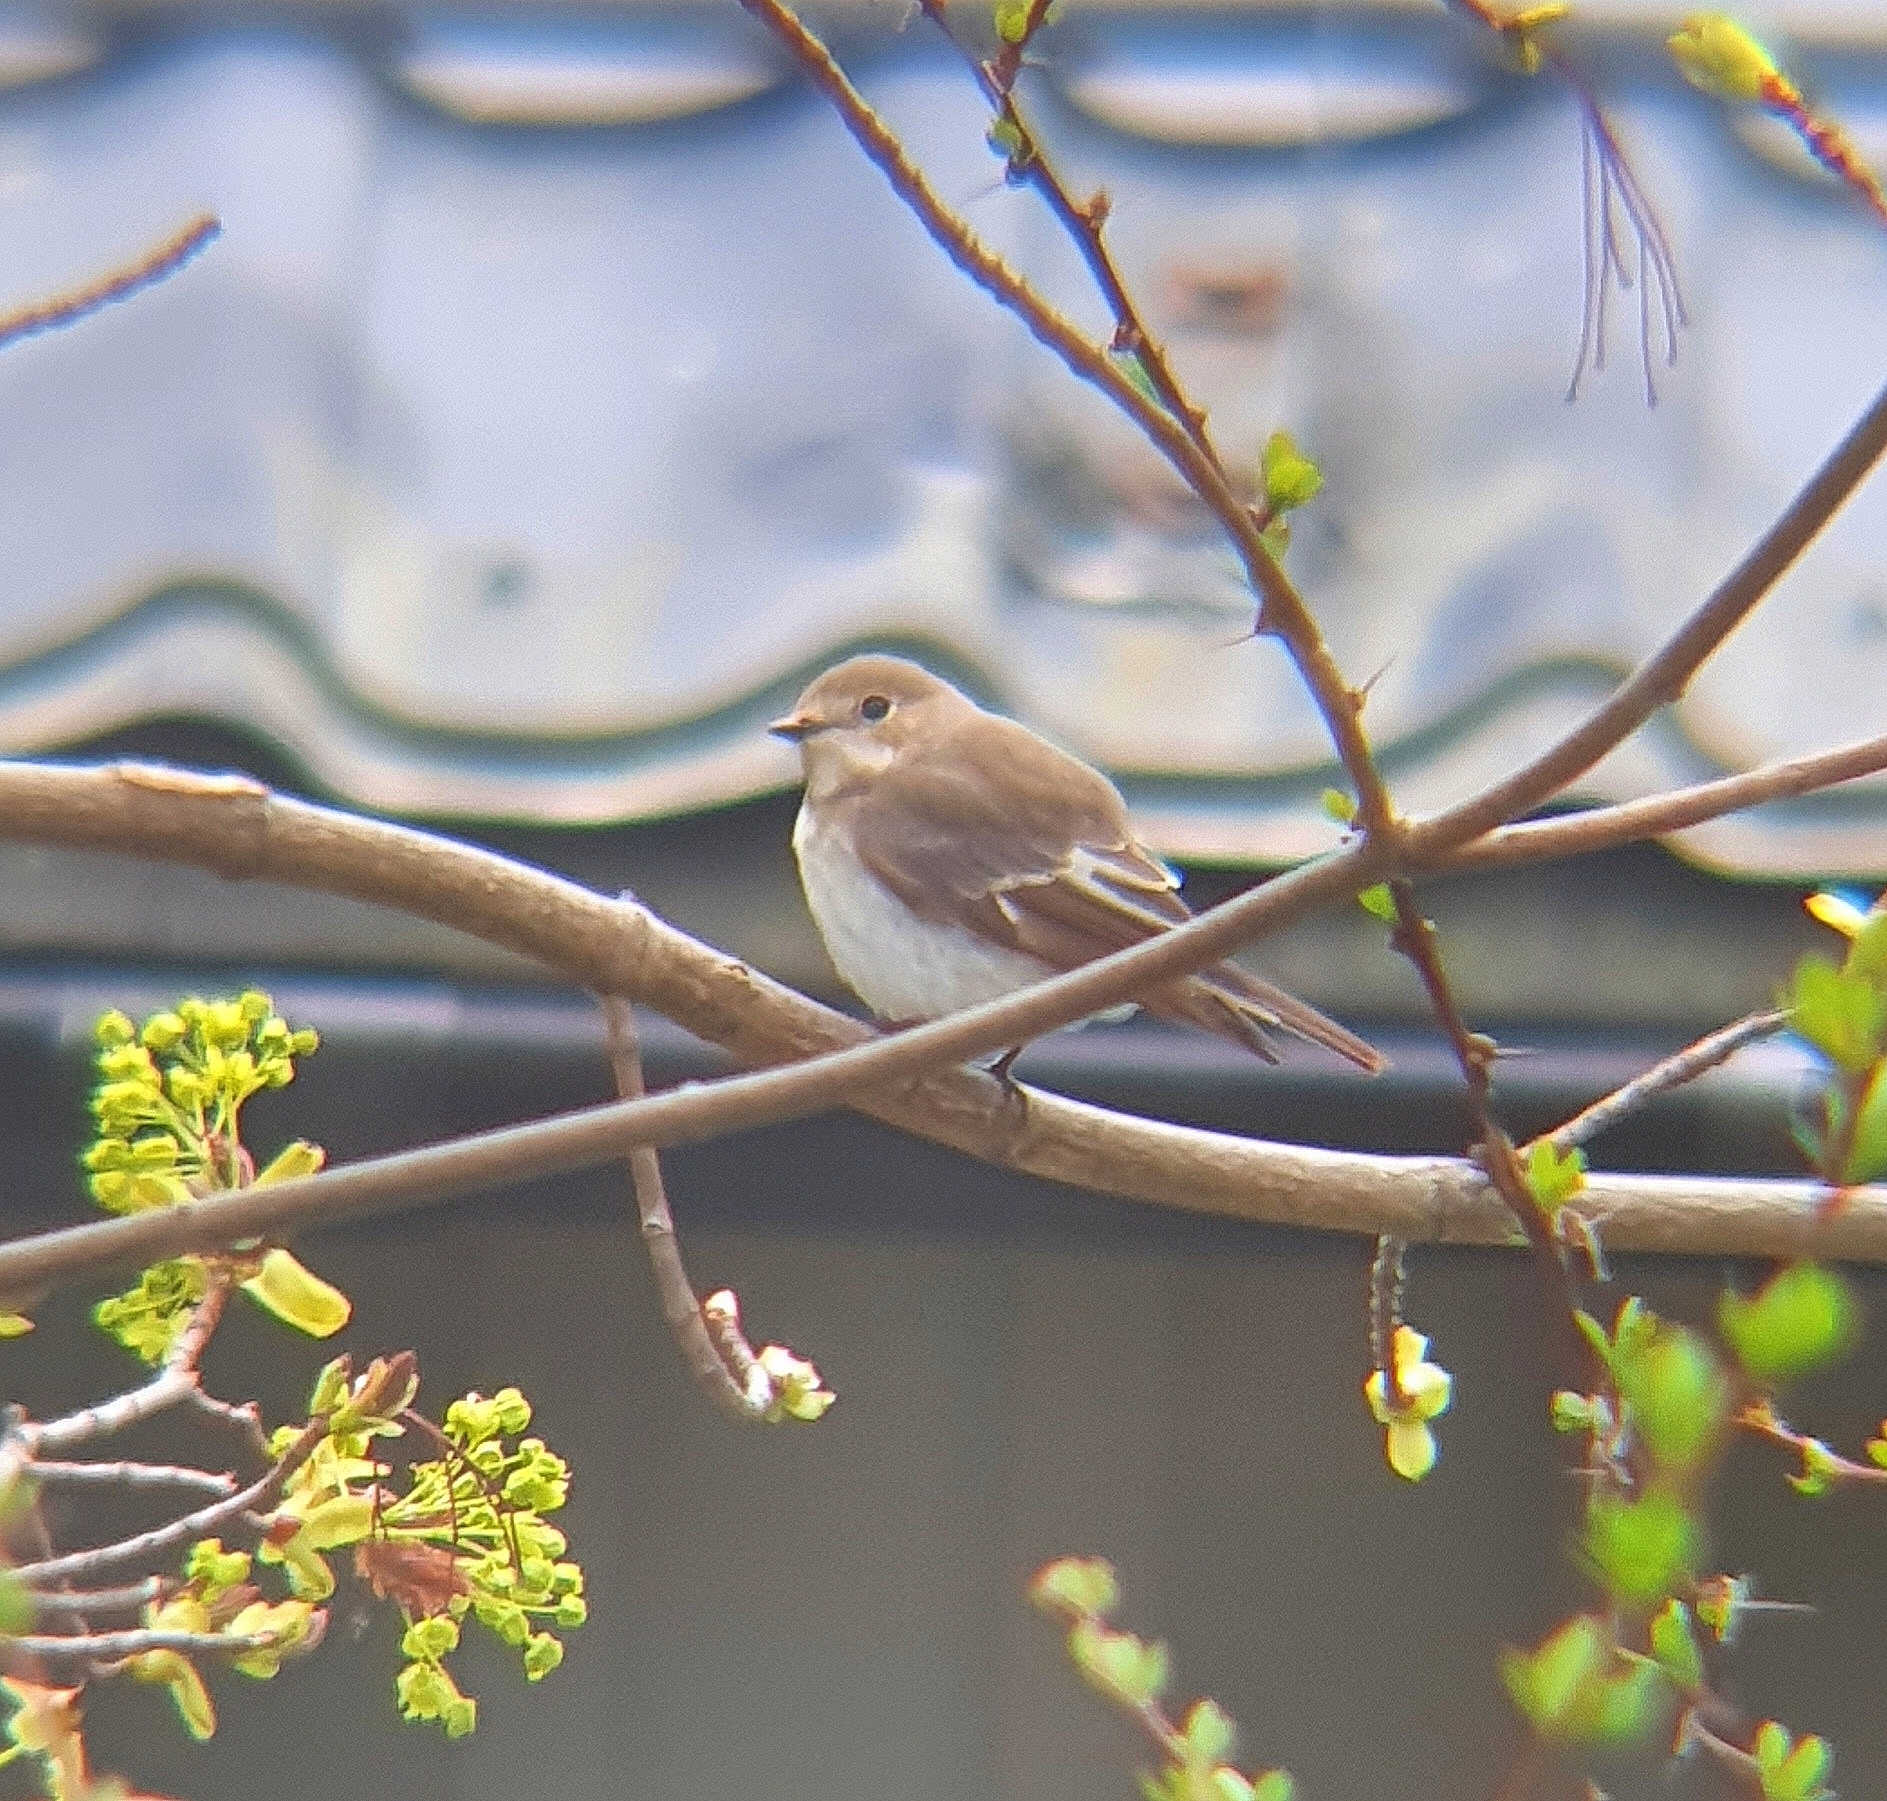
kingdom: Animalia
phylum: Chordata
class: Aves
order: Passeriformes
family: Muscicapidae
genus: Ficedula
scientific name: Ficedula hypoleuca
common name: European pied flycatcher
